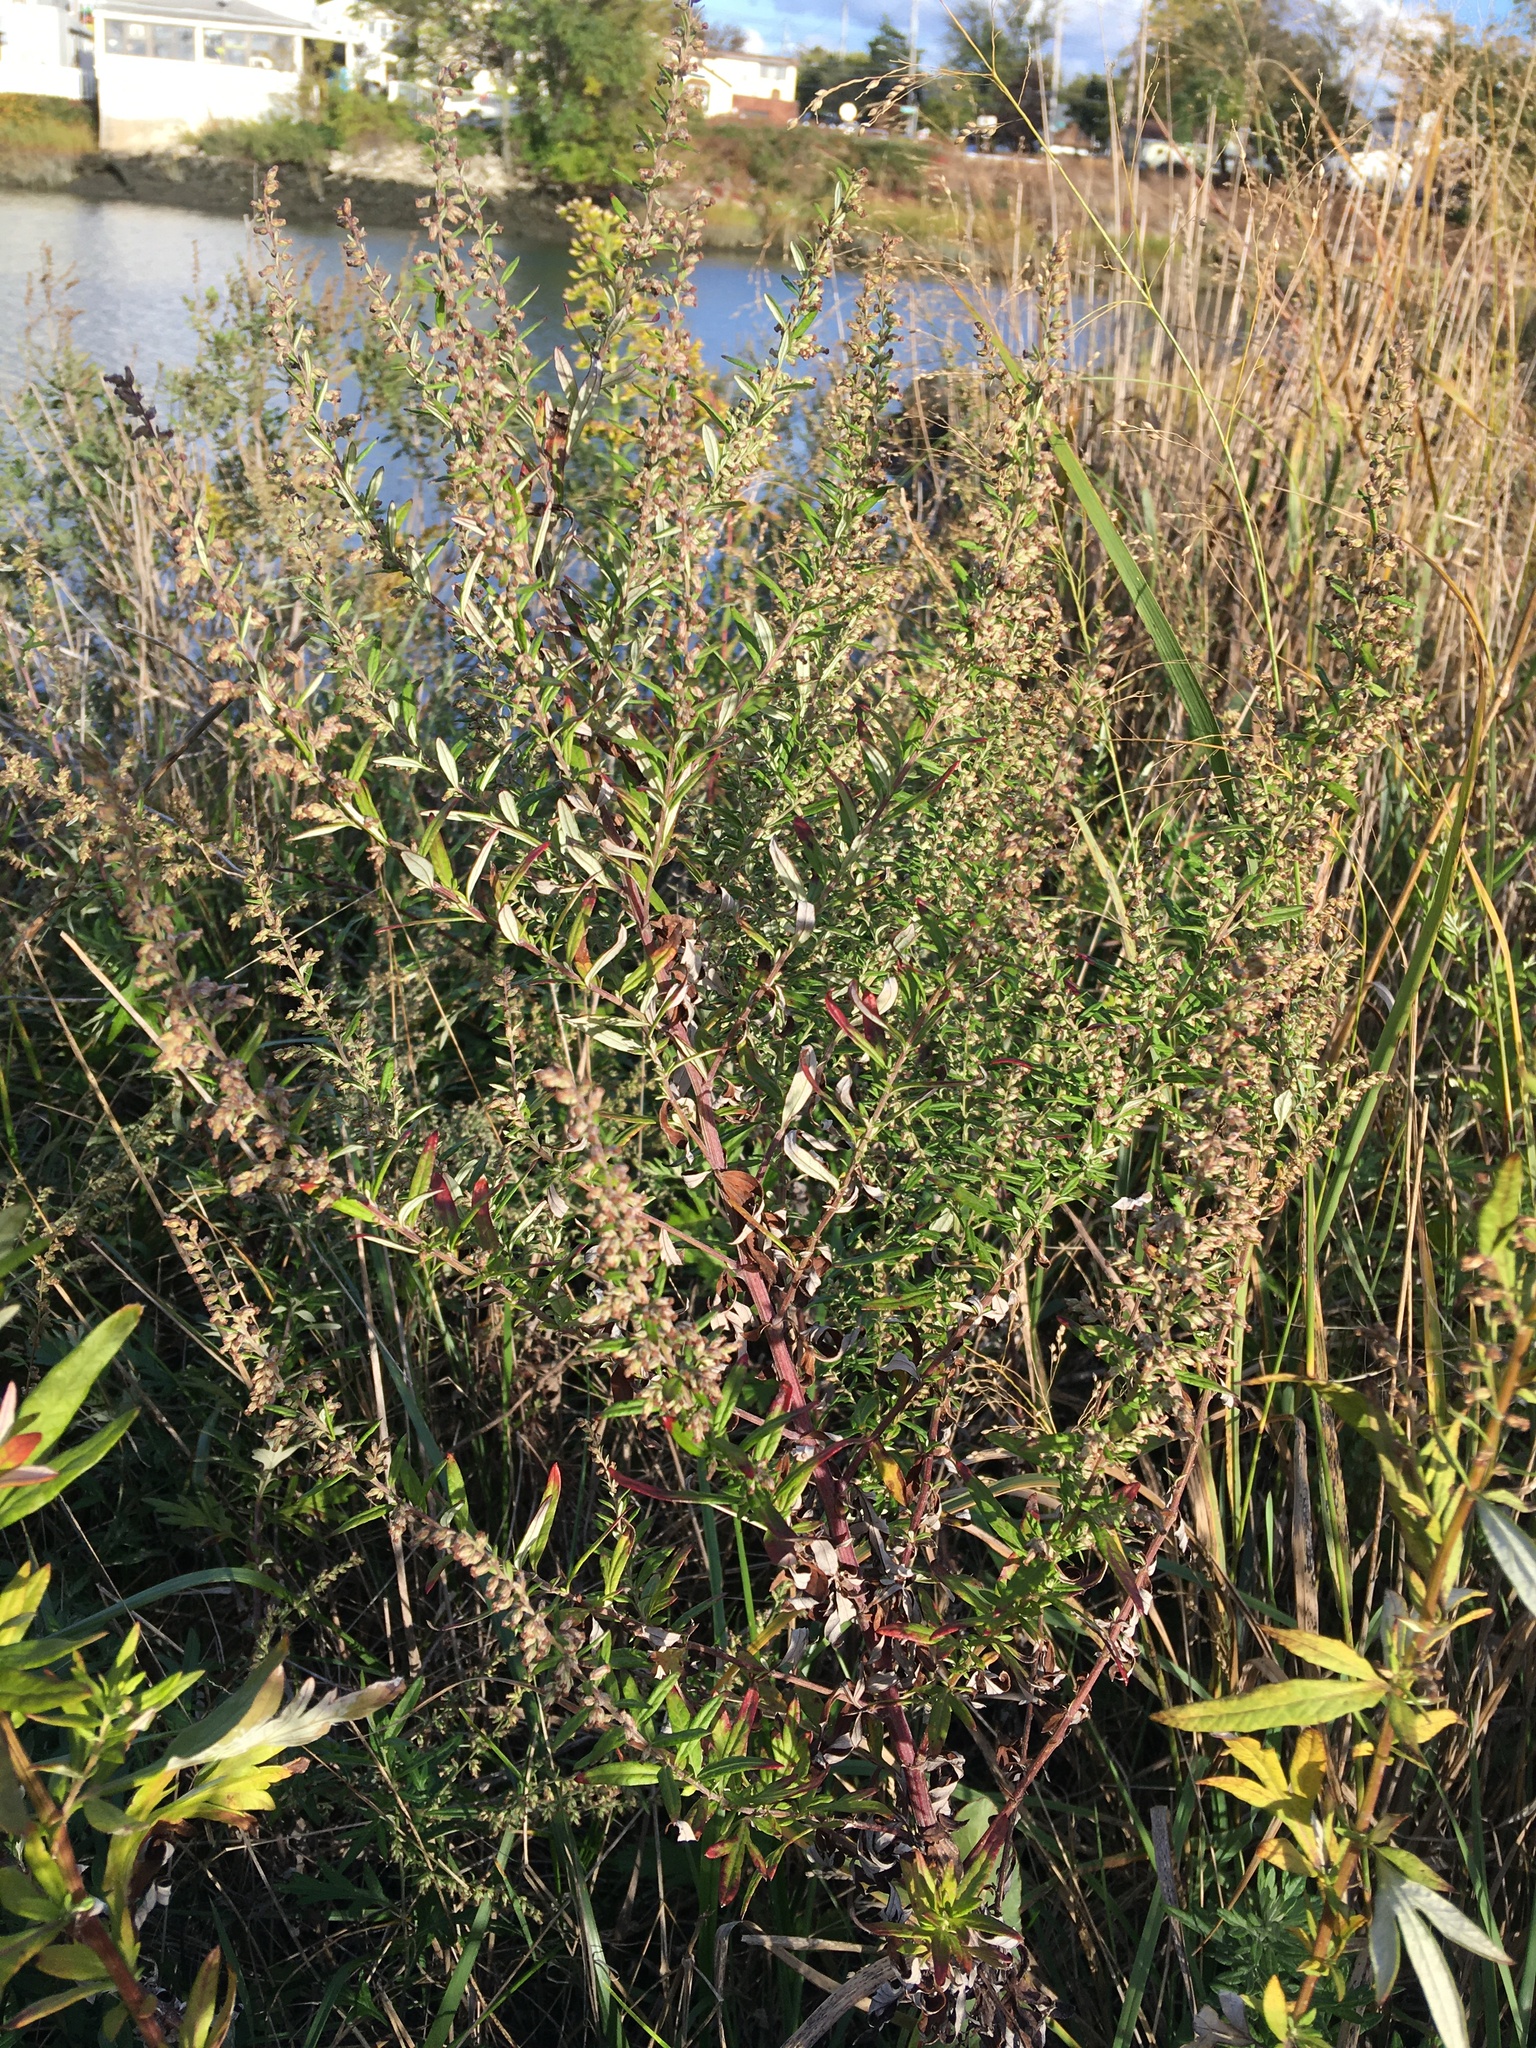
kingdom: Plantae
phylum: Tracheophyta
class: Magnoliopsida
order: Asterales
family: Asteraceae
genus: Artemisia
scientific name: Artemisia vulgaris
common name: Mugwort
